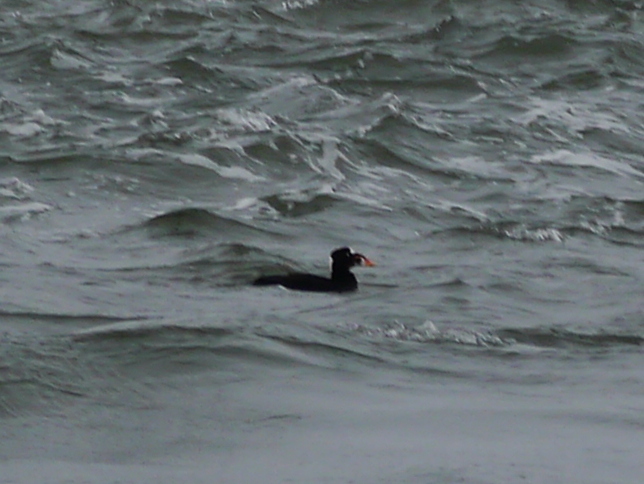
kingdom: Animalia
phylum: Chordata
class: Aves
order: Anseriformes
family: Anatidae
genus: Melanitta
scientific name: Melanitta perspicillata
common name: Surf scoter
